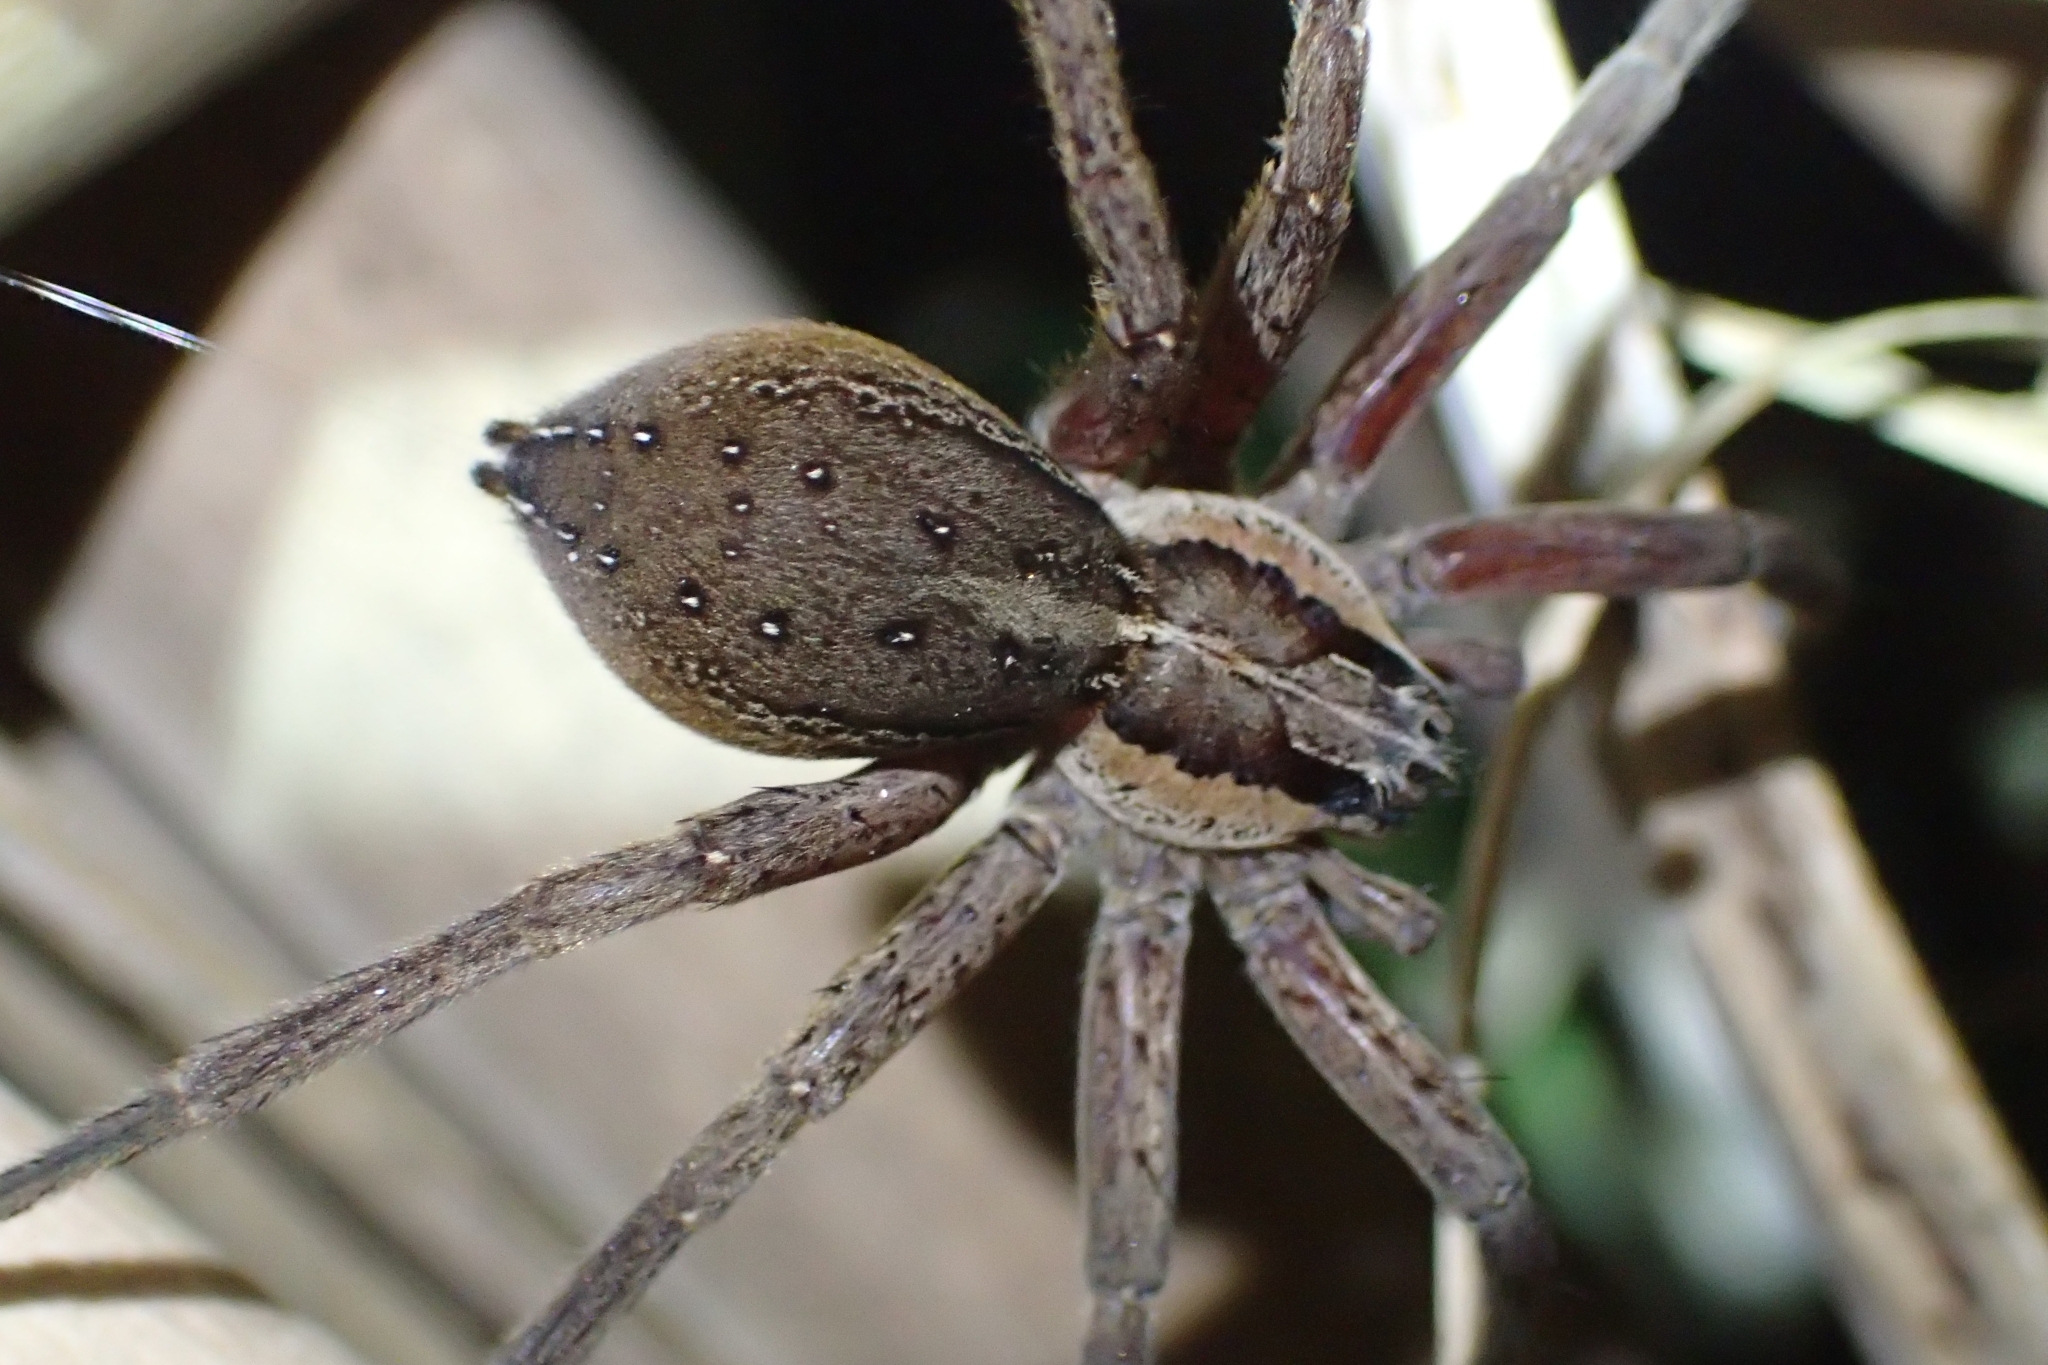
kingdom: Animalia
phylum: Arthropoda
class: Arachnida
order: Araneae
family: Pisauridae
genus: Dolomedes
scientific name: Dolomedes minor
